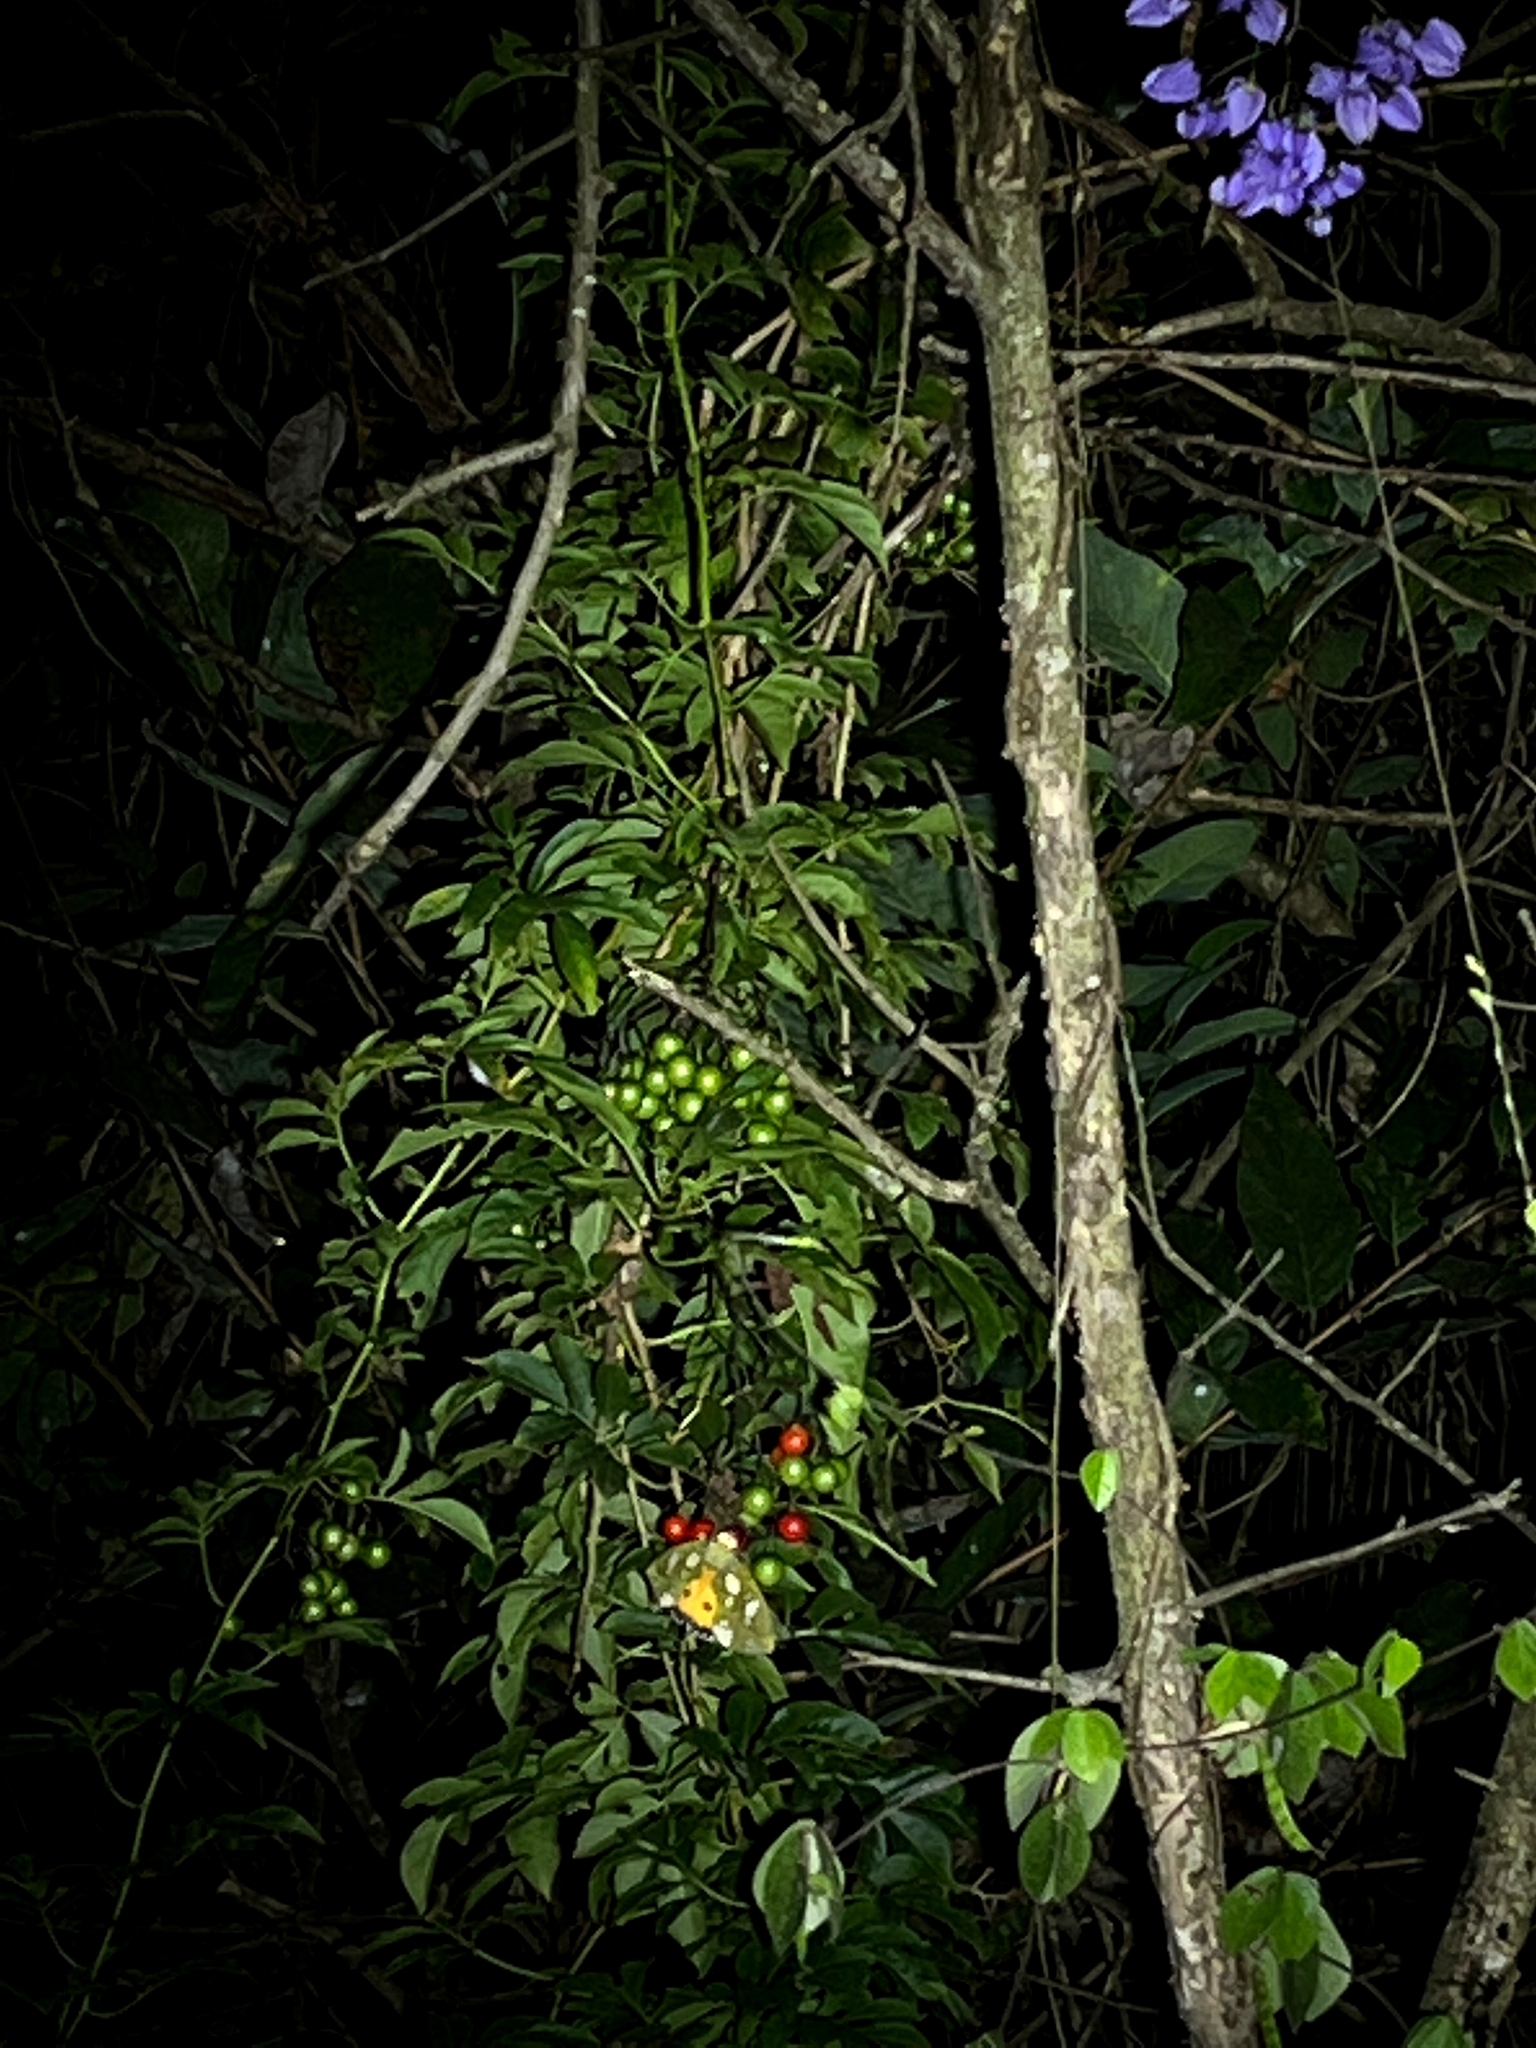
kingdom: Animalia
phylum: Arthropoda
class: Insecta
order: Lepidoptera
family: Erebidae
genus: Eudocima
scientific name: Eudocima hypermnestra
